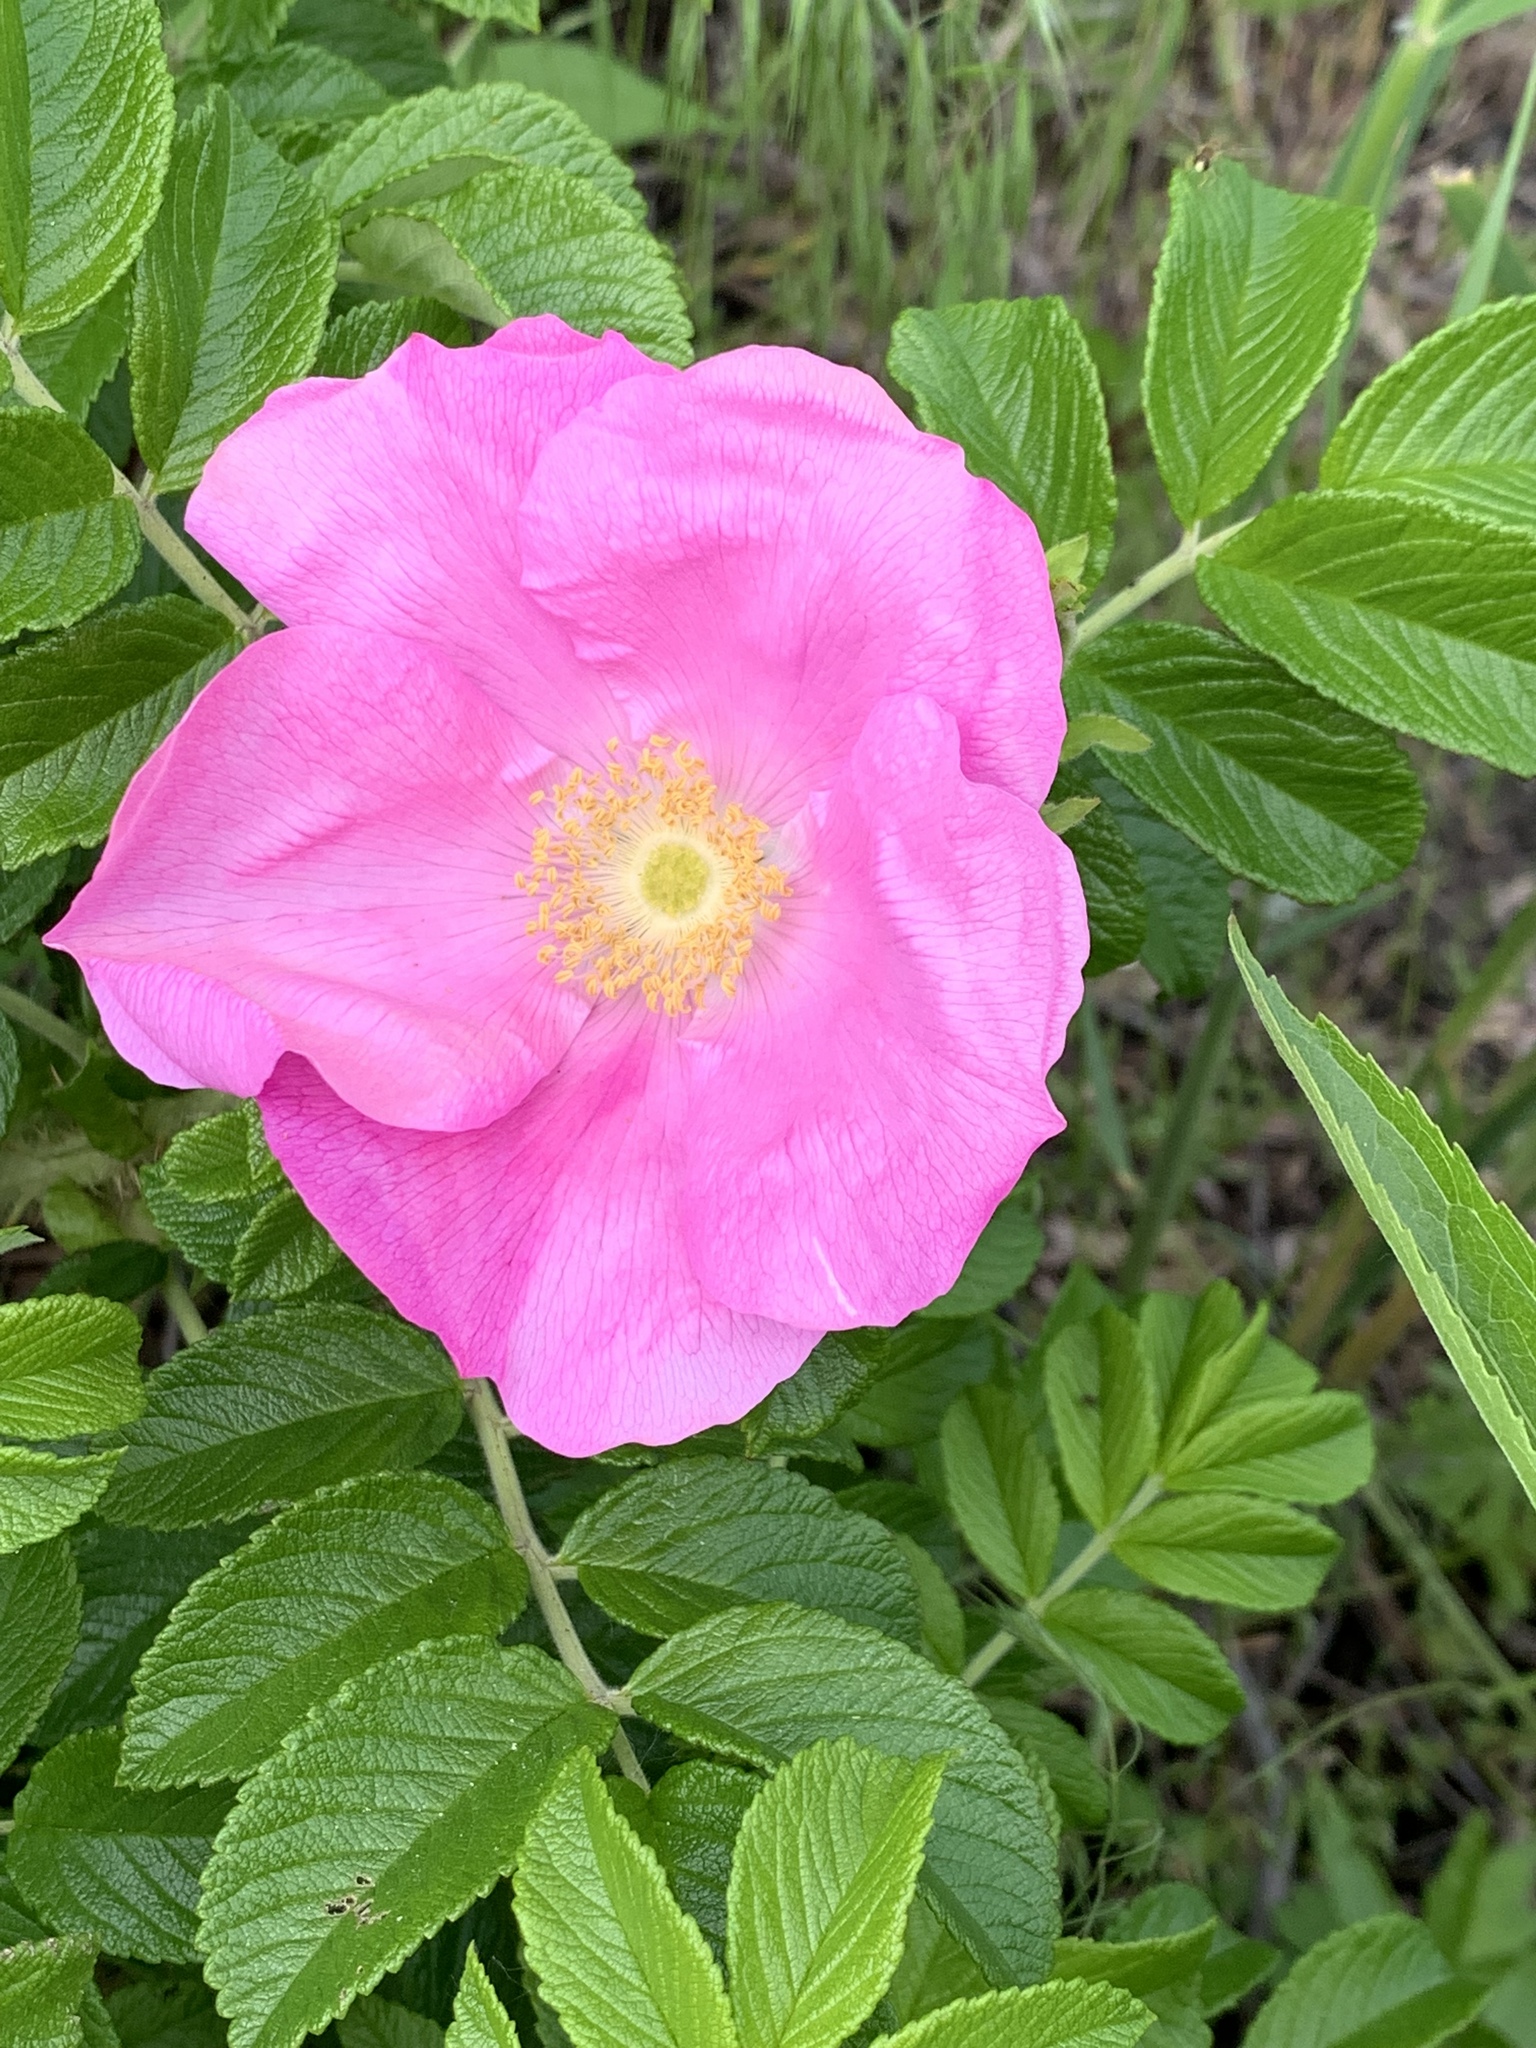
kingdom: Plantae
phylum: Tracheophyta
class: Magnoliopsida
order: Rosales
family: Rosaceae
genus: Rosa
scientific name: Rosa rugosa
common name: Japanese rose
